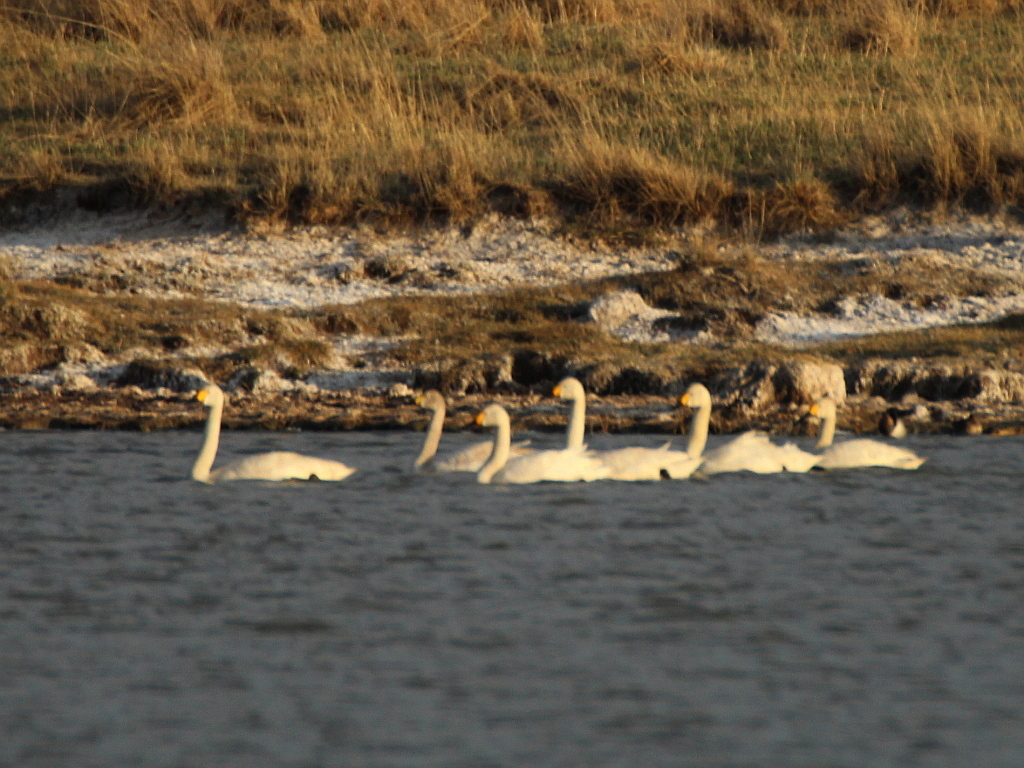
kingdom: Animalia
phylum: Chordata
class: Aves
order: Anseriformes
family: Anatidae
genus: Cygnus
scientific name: Cygnus columbianus
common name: Tundra swan
